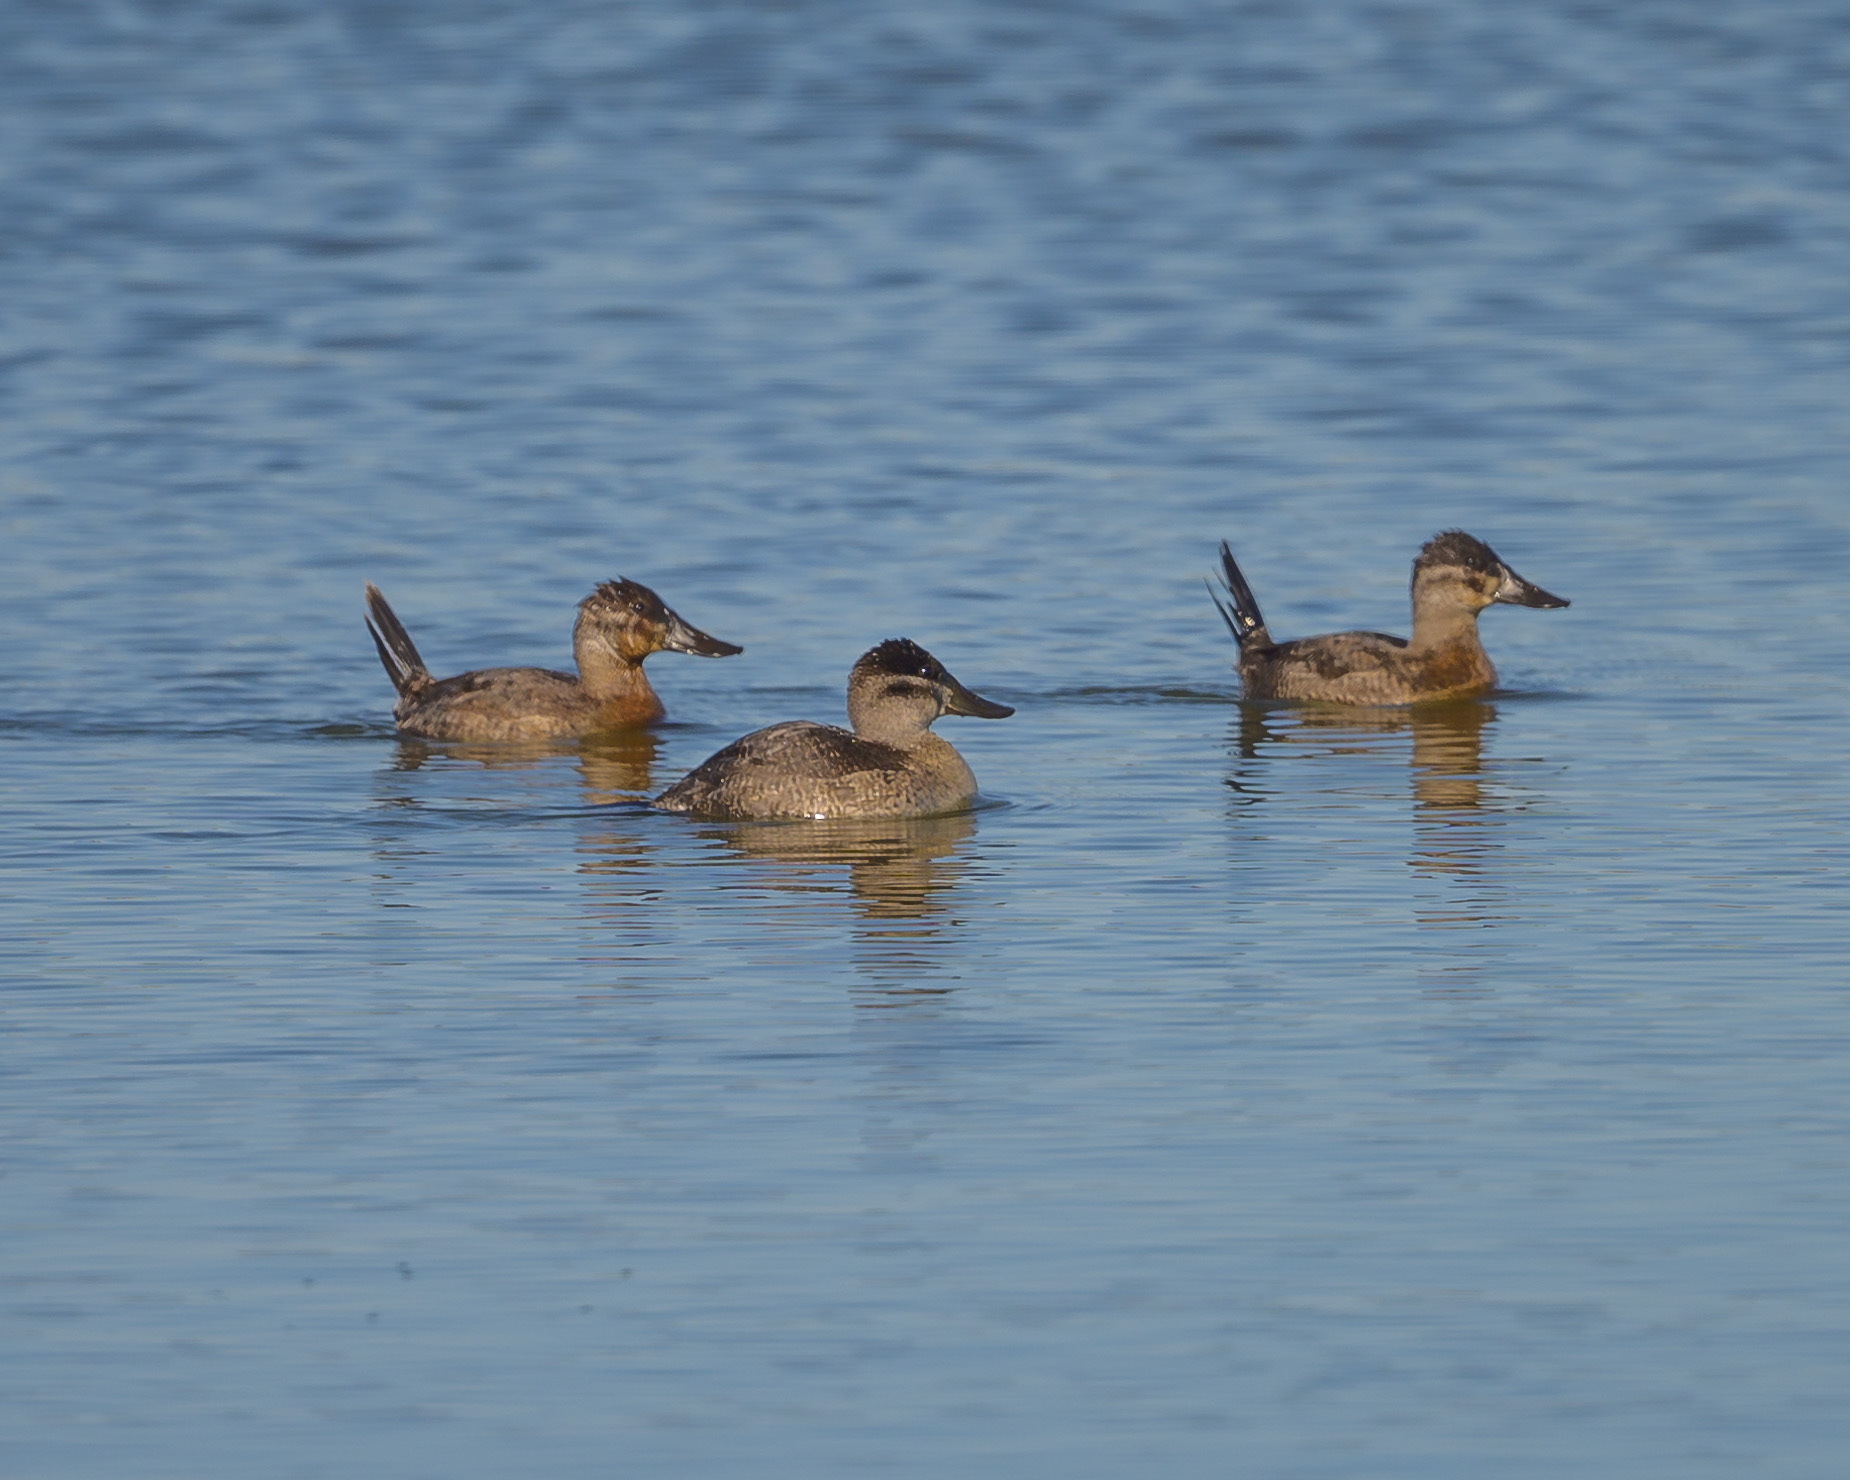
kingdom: Animalia
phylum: Chordata
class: Aves
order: Anseriformes
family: Anatidae
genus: Oxyura
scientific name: Oxyura jamaicensis
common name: Ruddy duck
